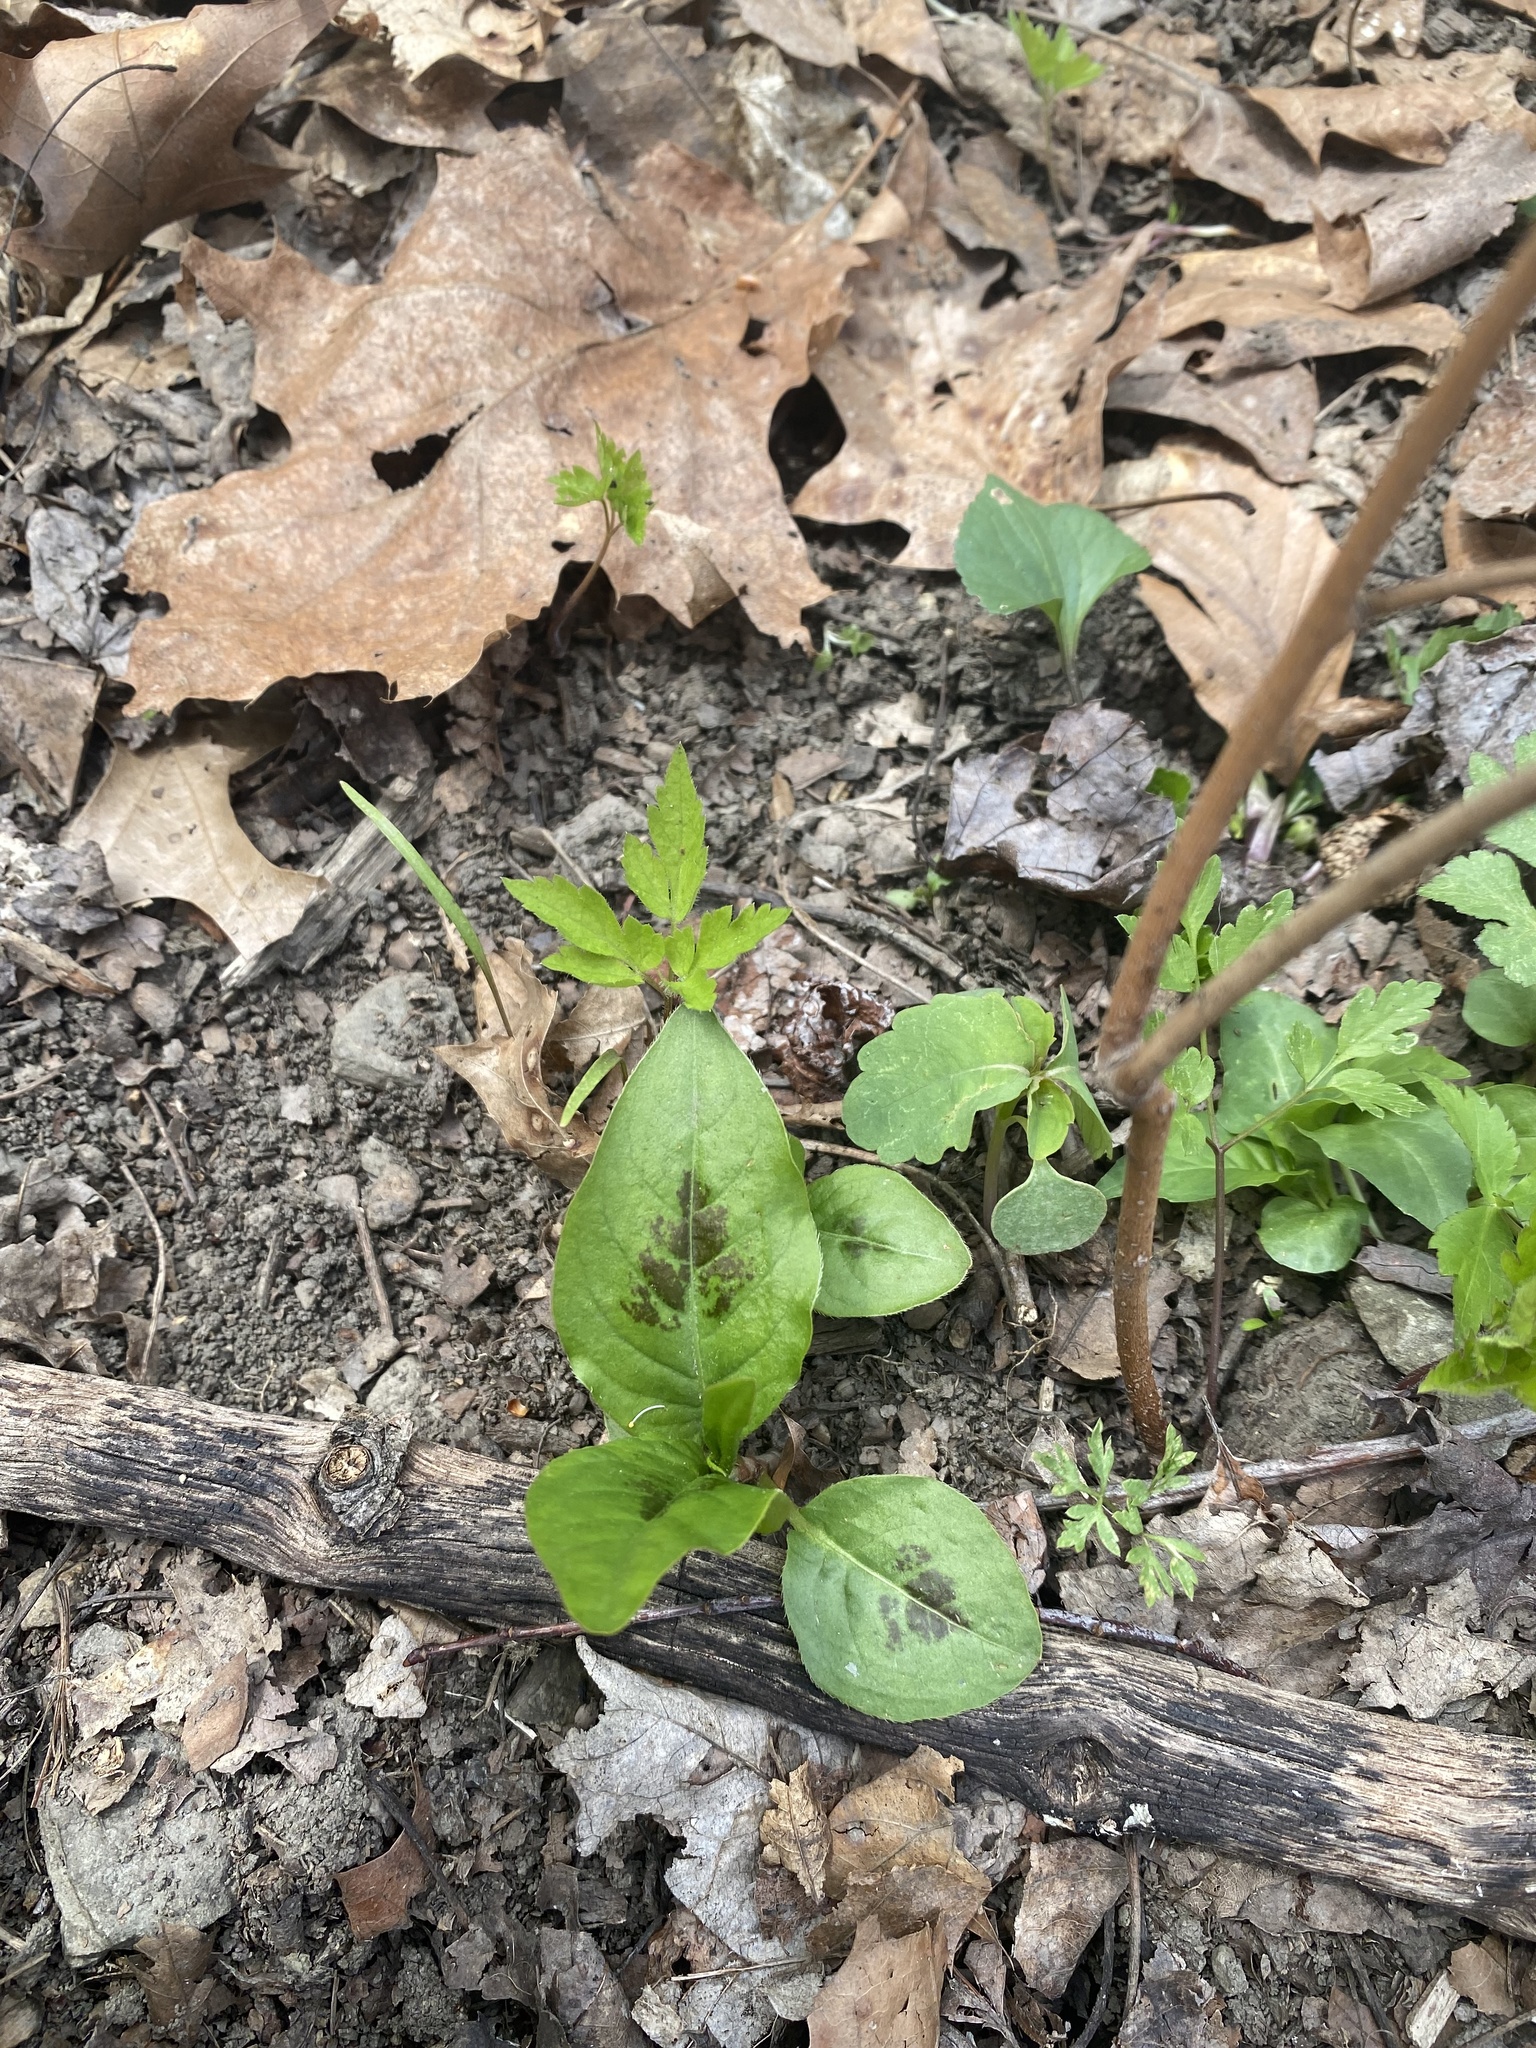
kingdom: Plantae
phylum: Tracheophyta
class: Magnoliopsida
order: Caryophyllales
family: Polygonaceae
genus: Persicaria
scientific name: Persicaria virginiana
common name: Jumpseed
